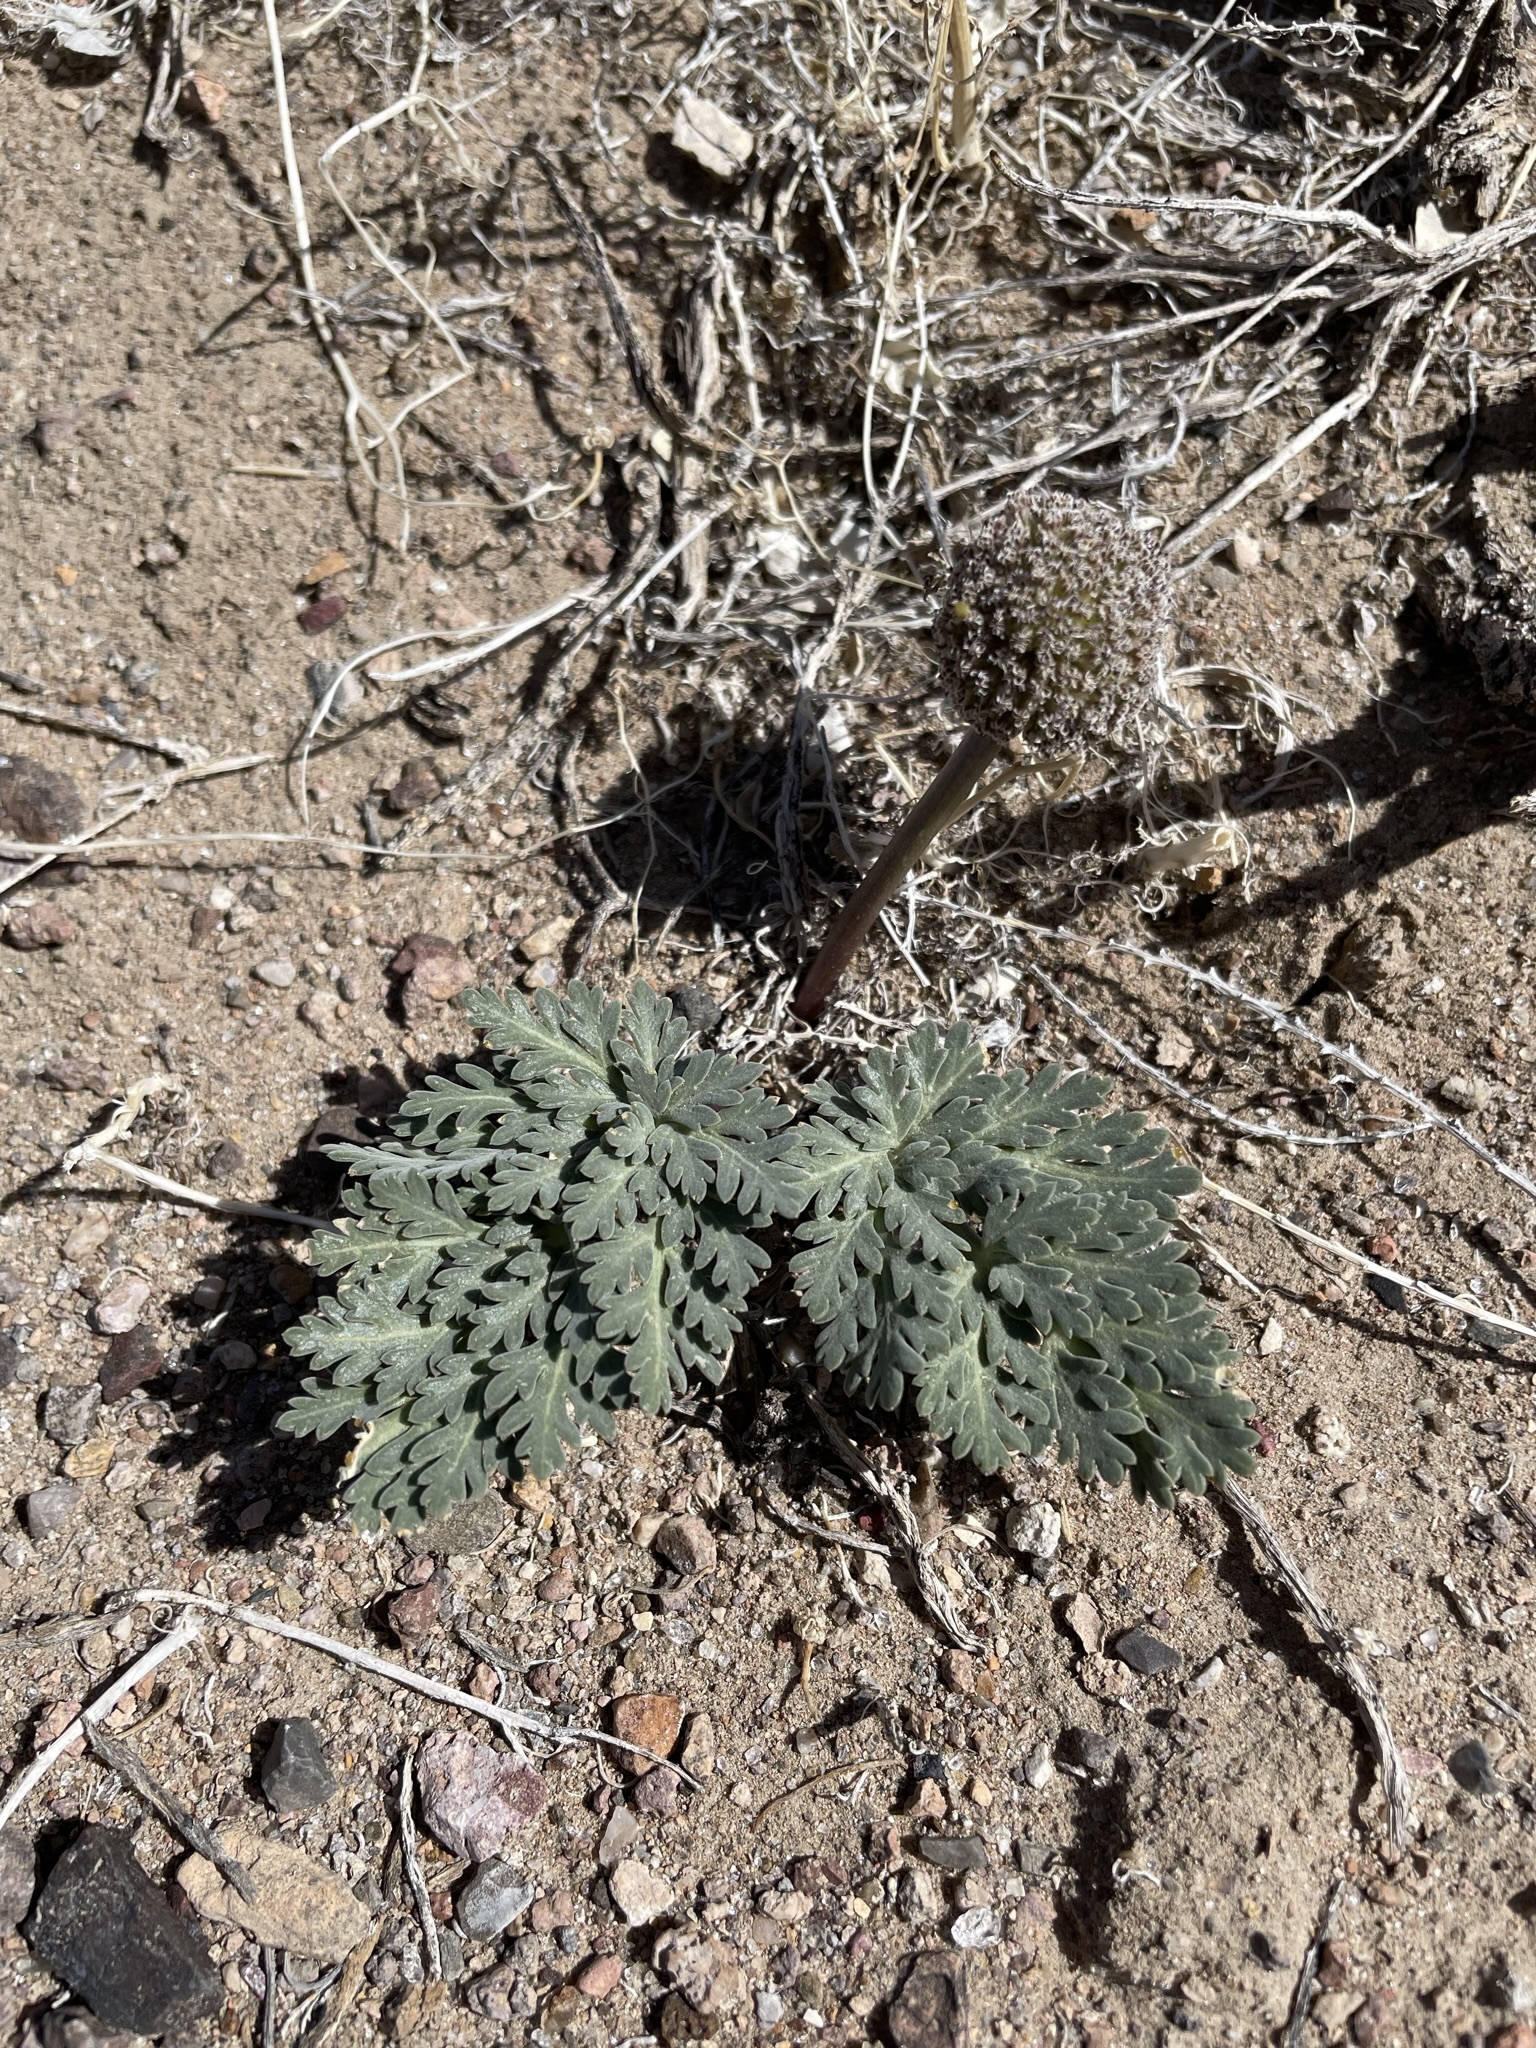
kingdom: Plantae
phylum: Tracheophyta
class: Magnoliopsida
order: Apiales
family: Apiaceae
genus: Cymopterus
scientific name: Cymopterus globosus
